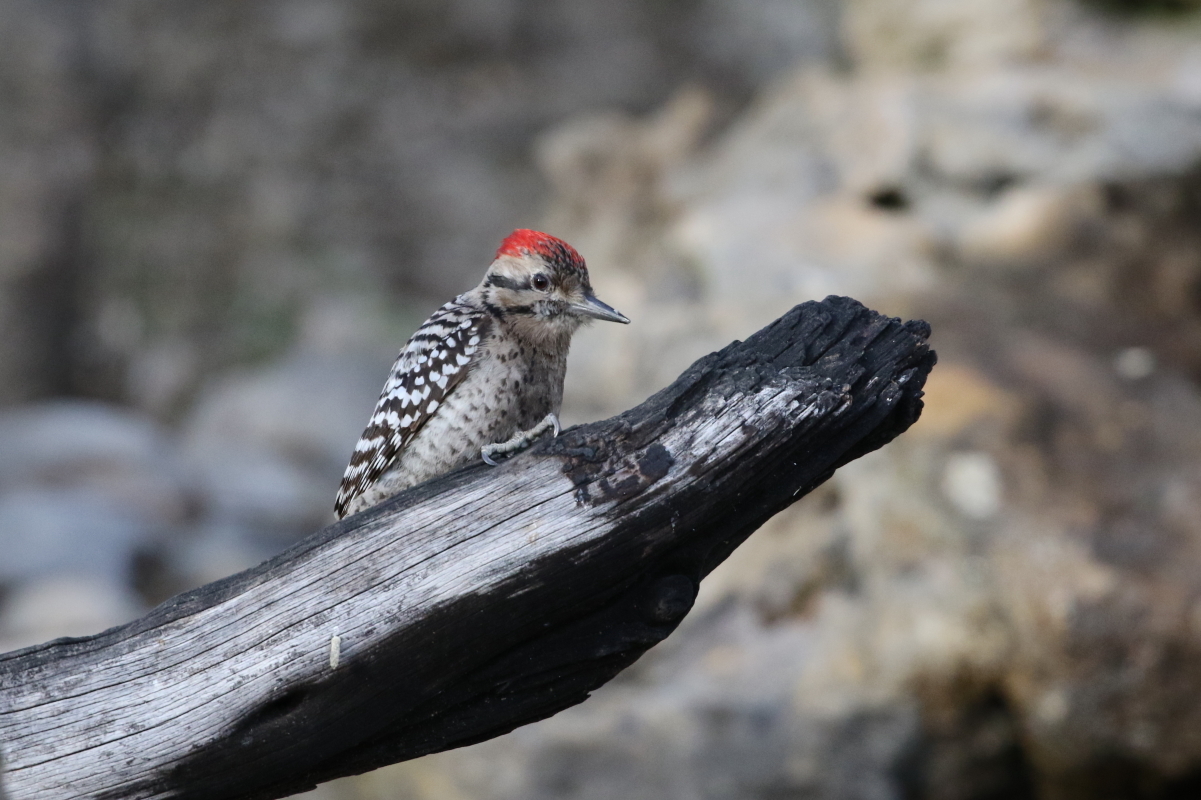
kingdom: Animalia
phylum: Chordata
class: Aves
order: Piciformes
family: Picidae
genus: Dryobates
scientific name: Dryobates scalaris
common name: Ladder-backed woodpecker
